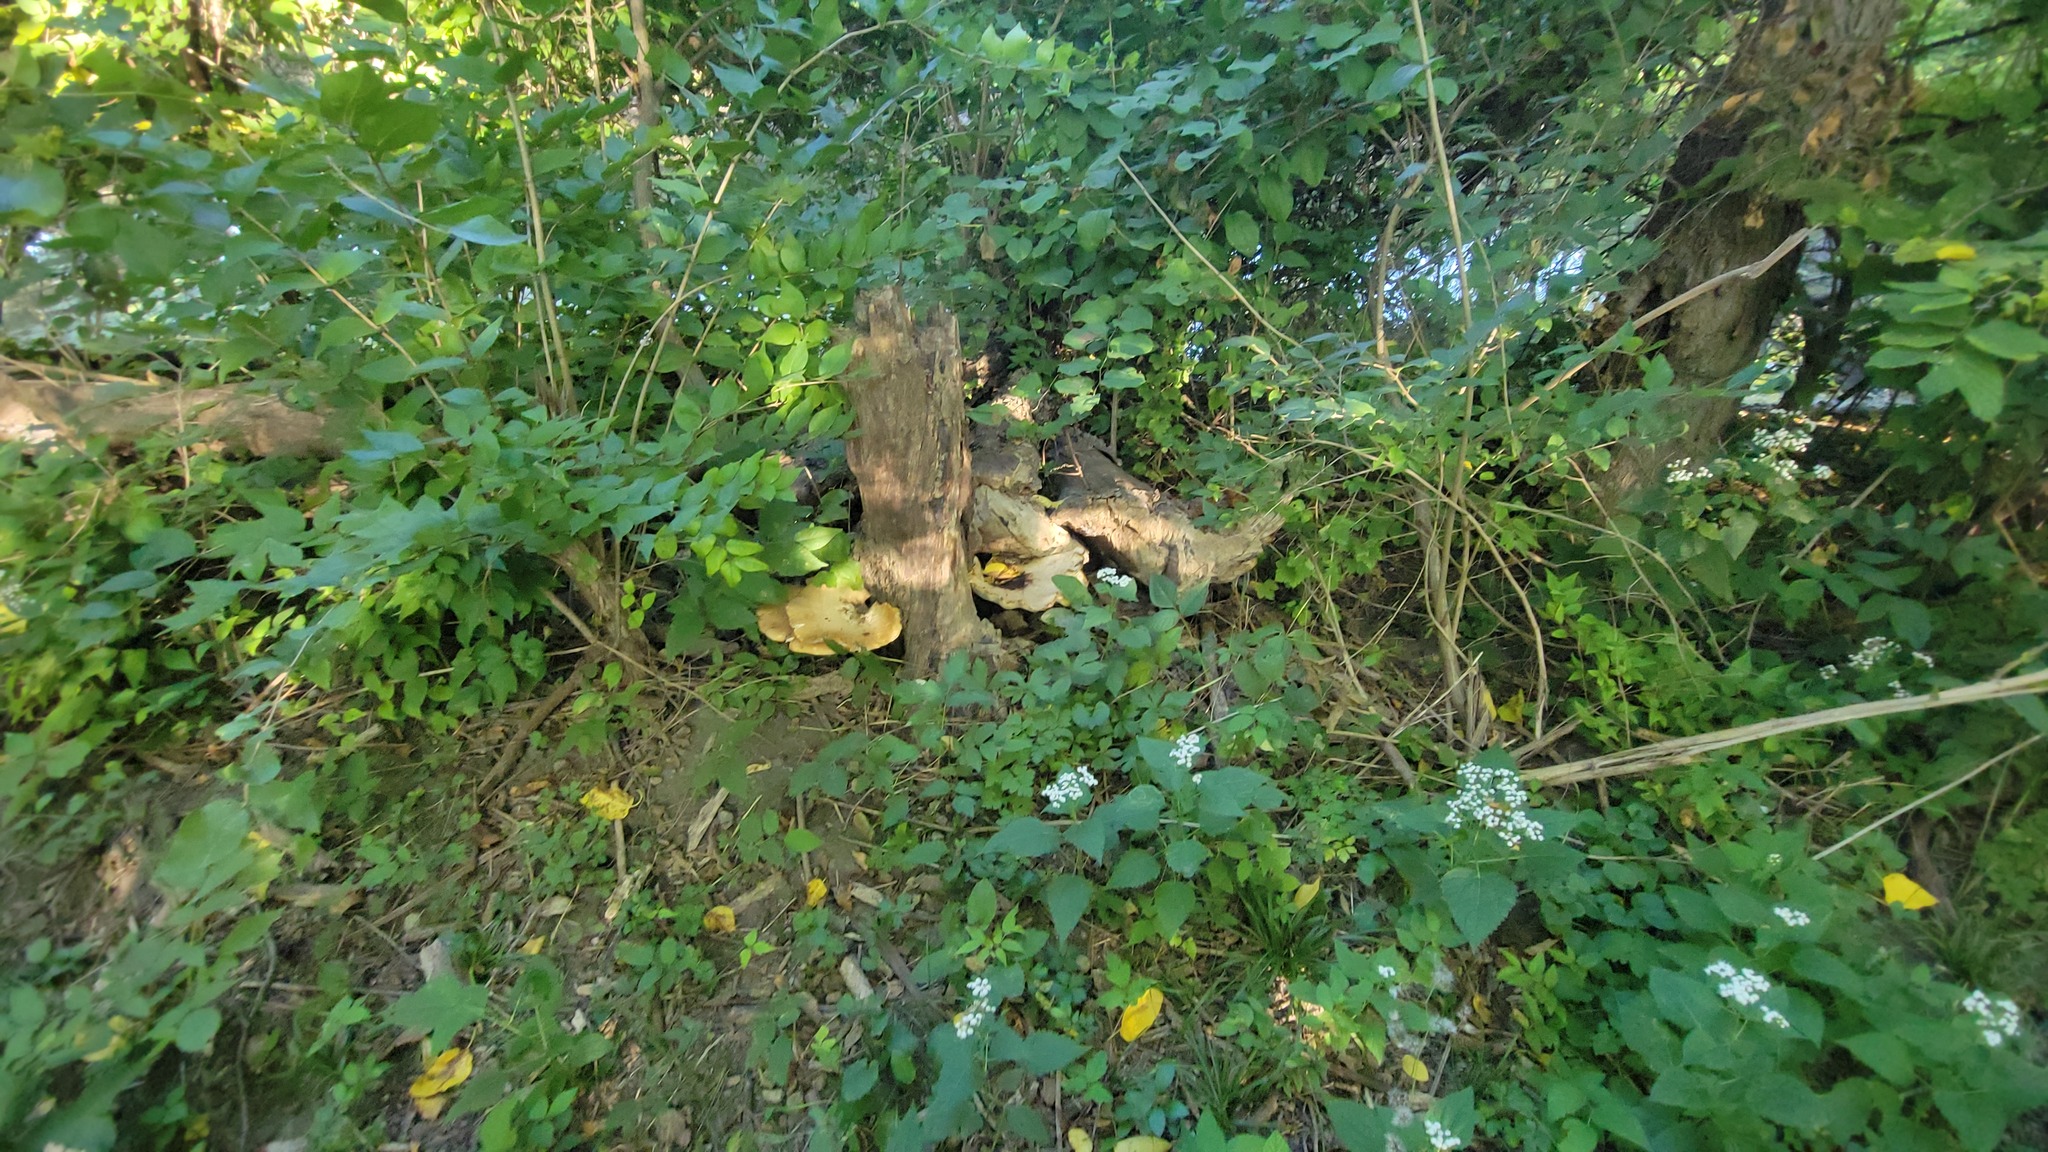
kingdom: Fungi
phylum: Basidiomycota
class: Agaricomycetes
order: Polyporales
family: Polyporaceae
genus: Cerioporus
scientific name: Cerioporus squamosus
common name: Dryad's saddle
